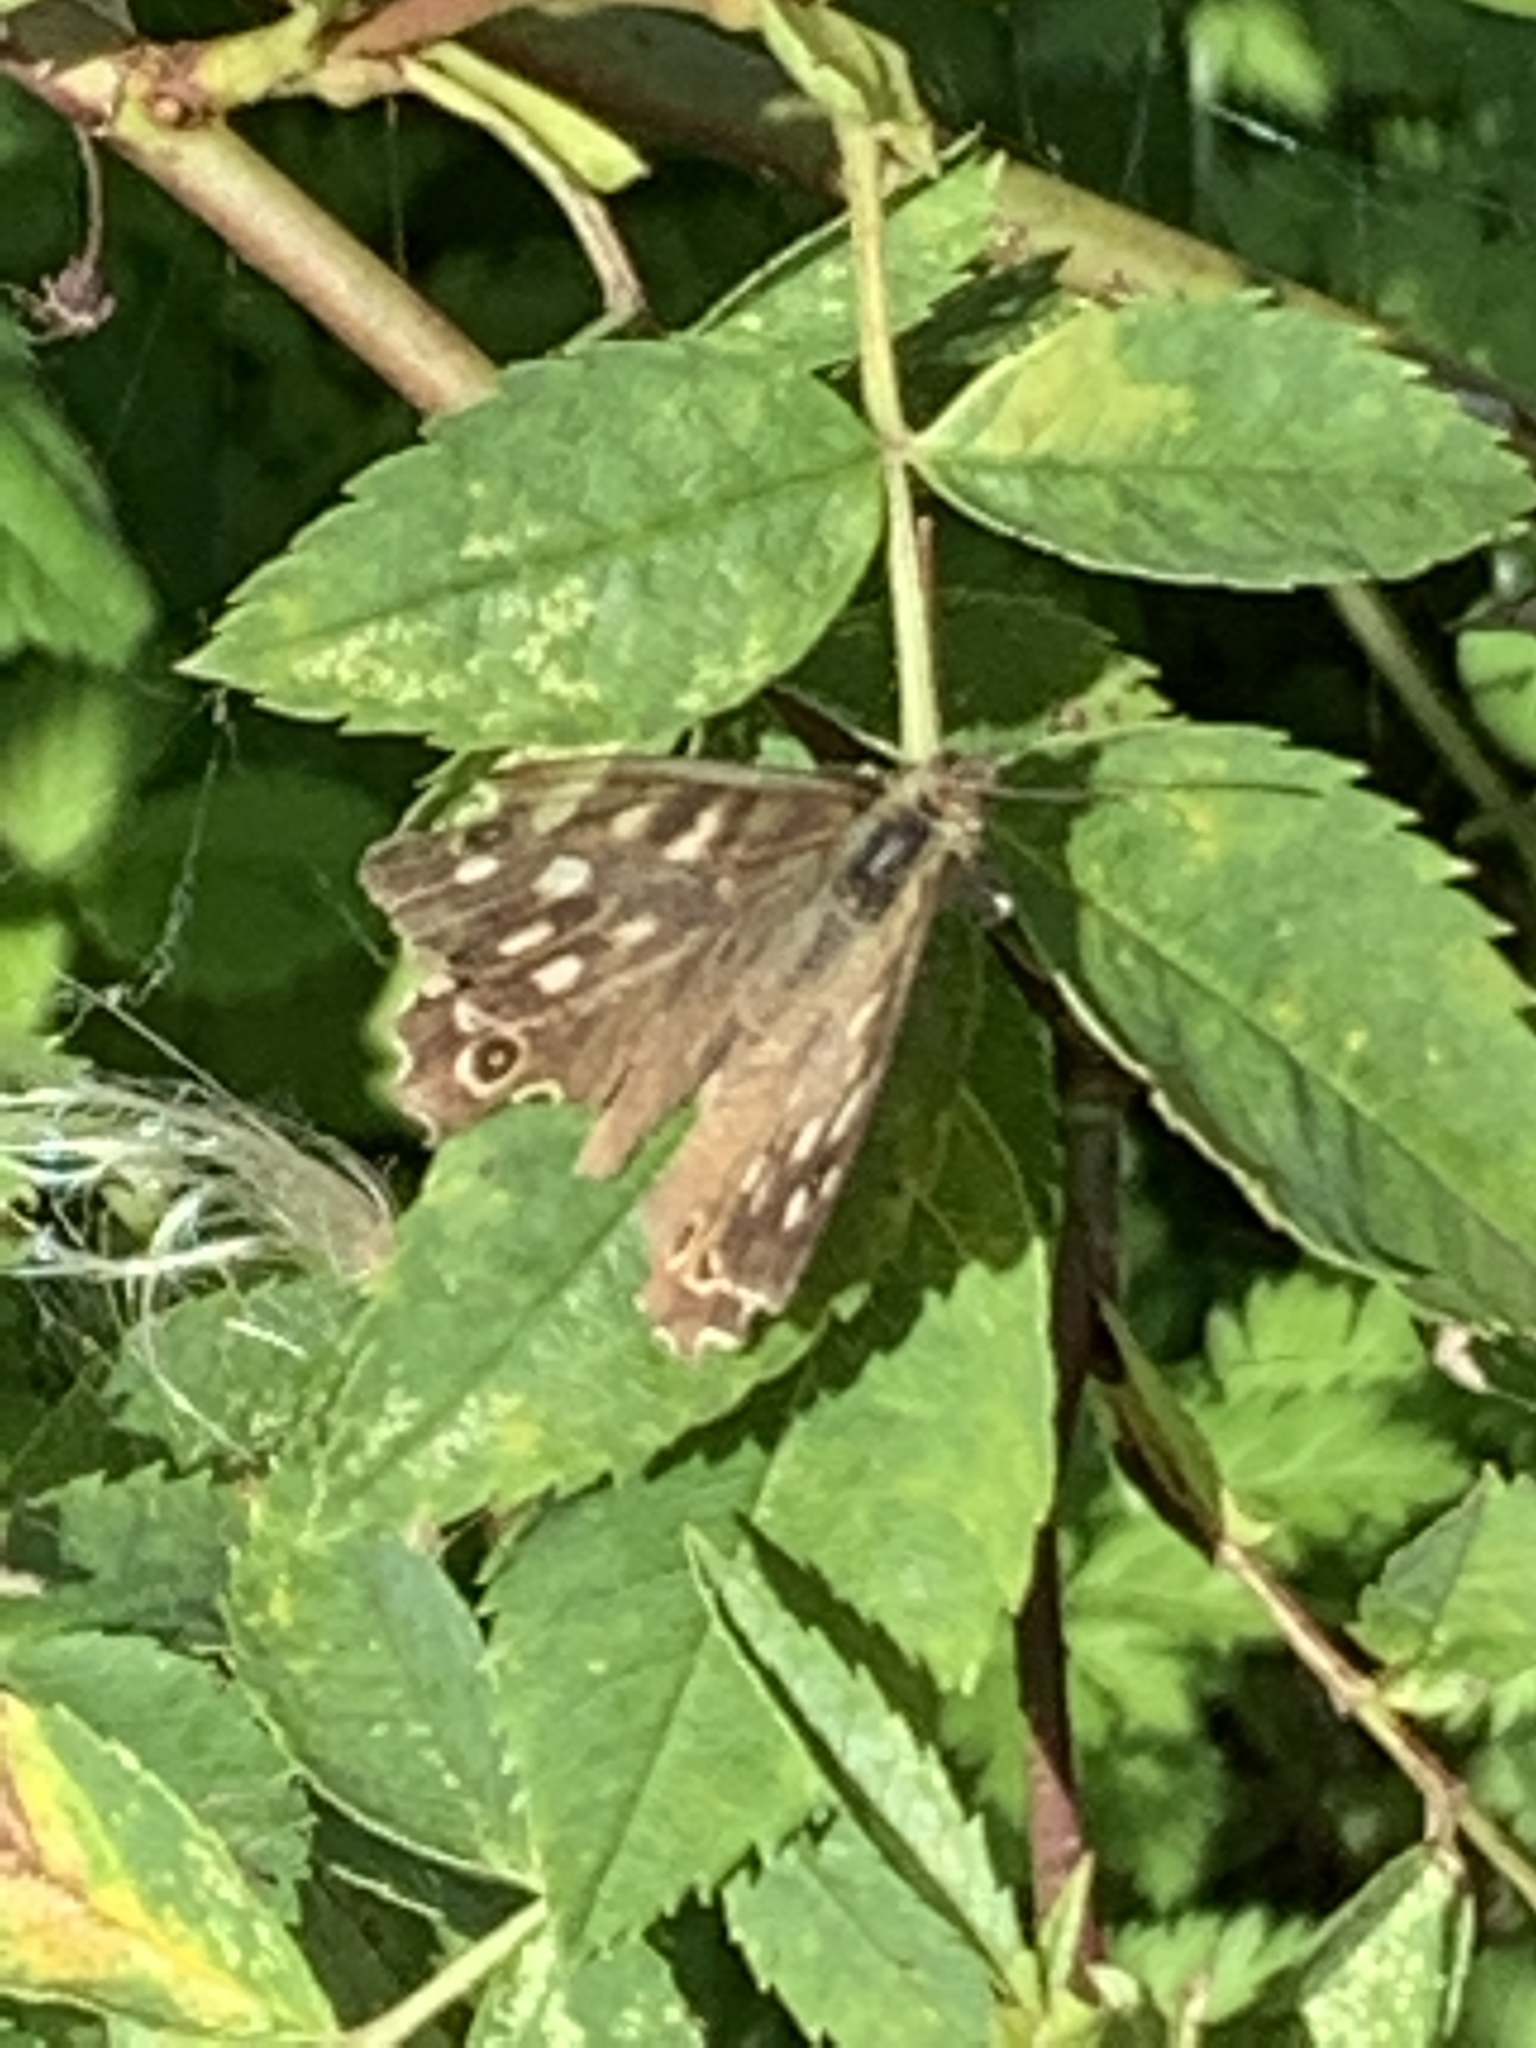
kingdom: Animalia
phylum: Arthropoda
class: Insecta
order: Lepidoptera
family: Nymphalidae
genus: Pararge
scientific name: Pararge aegeria
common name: Speckled wood
